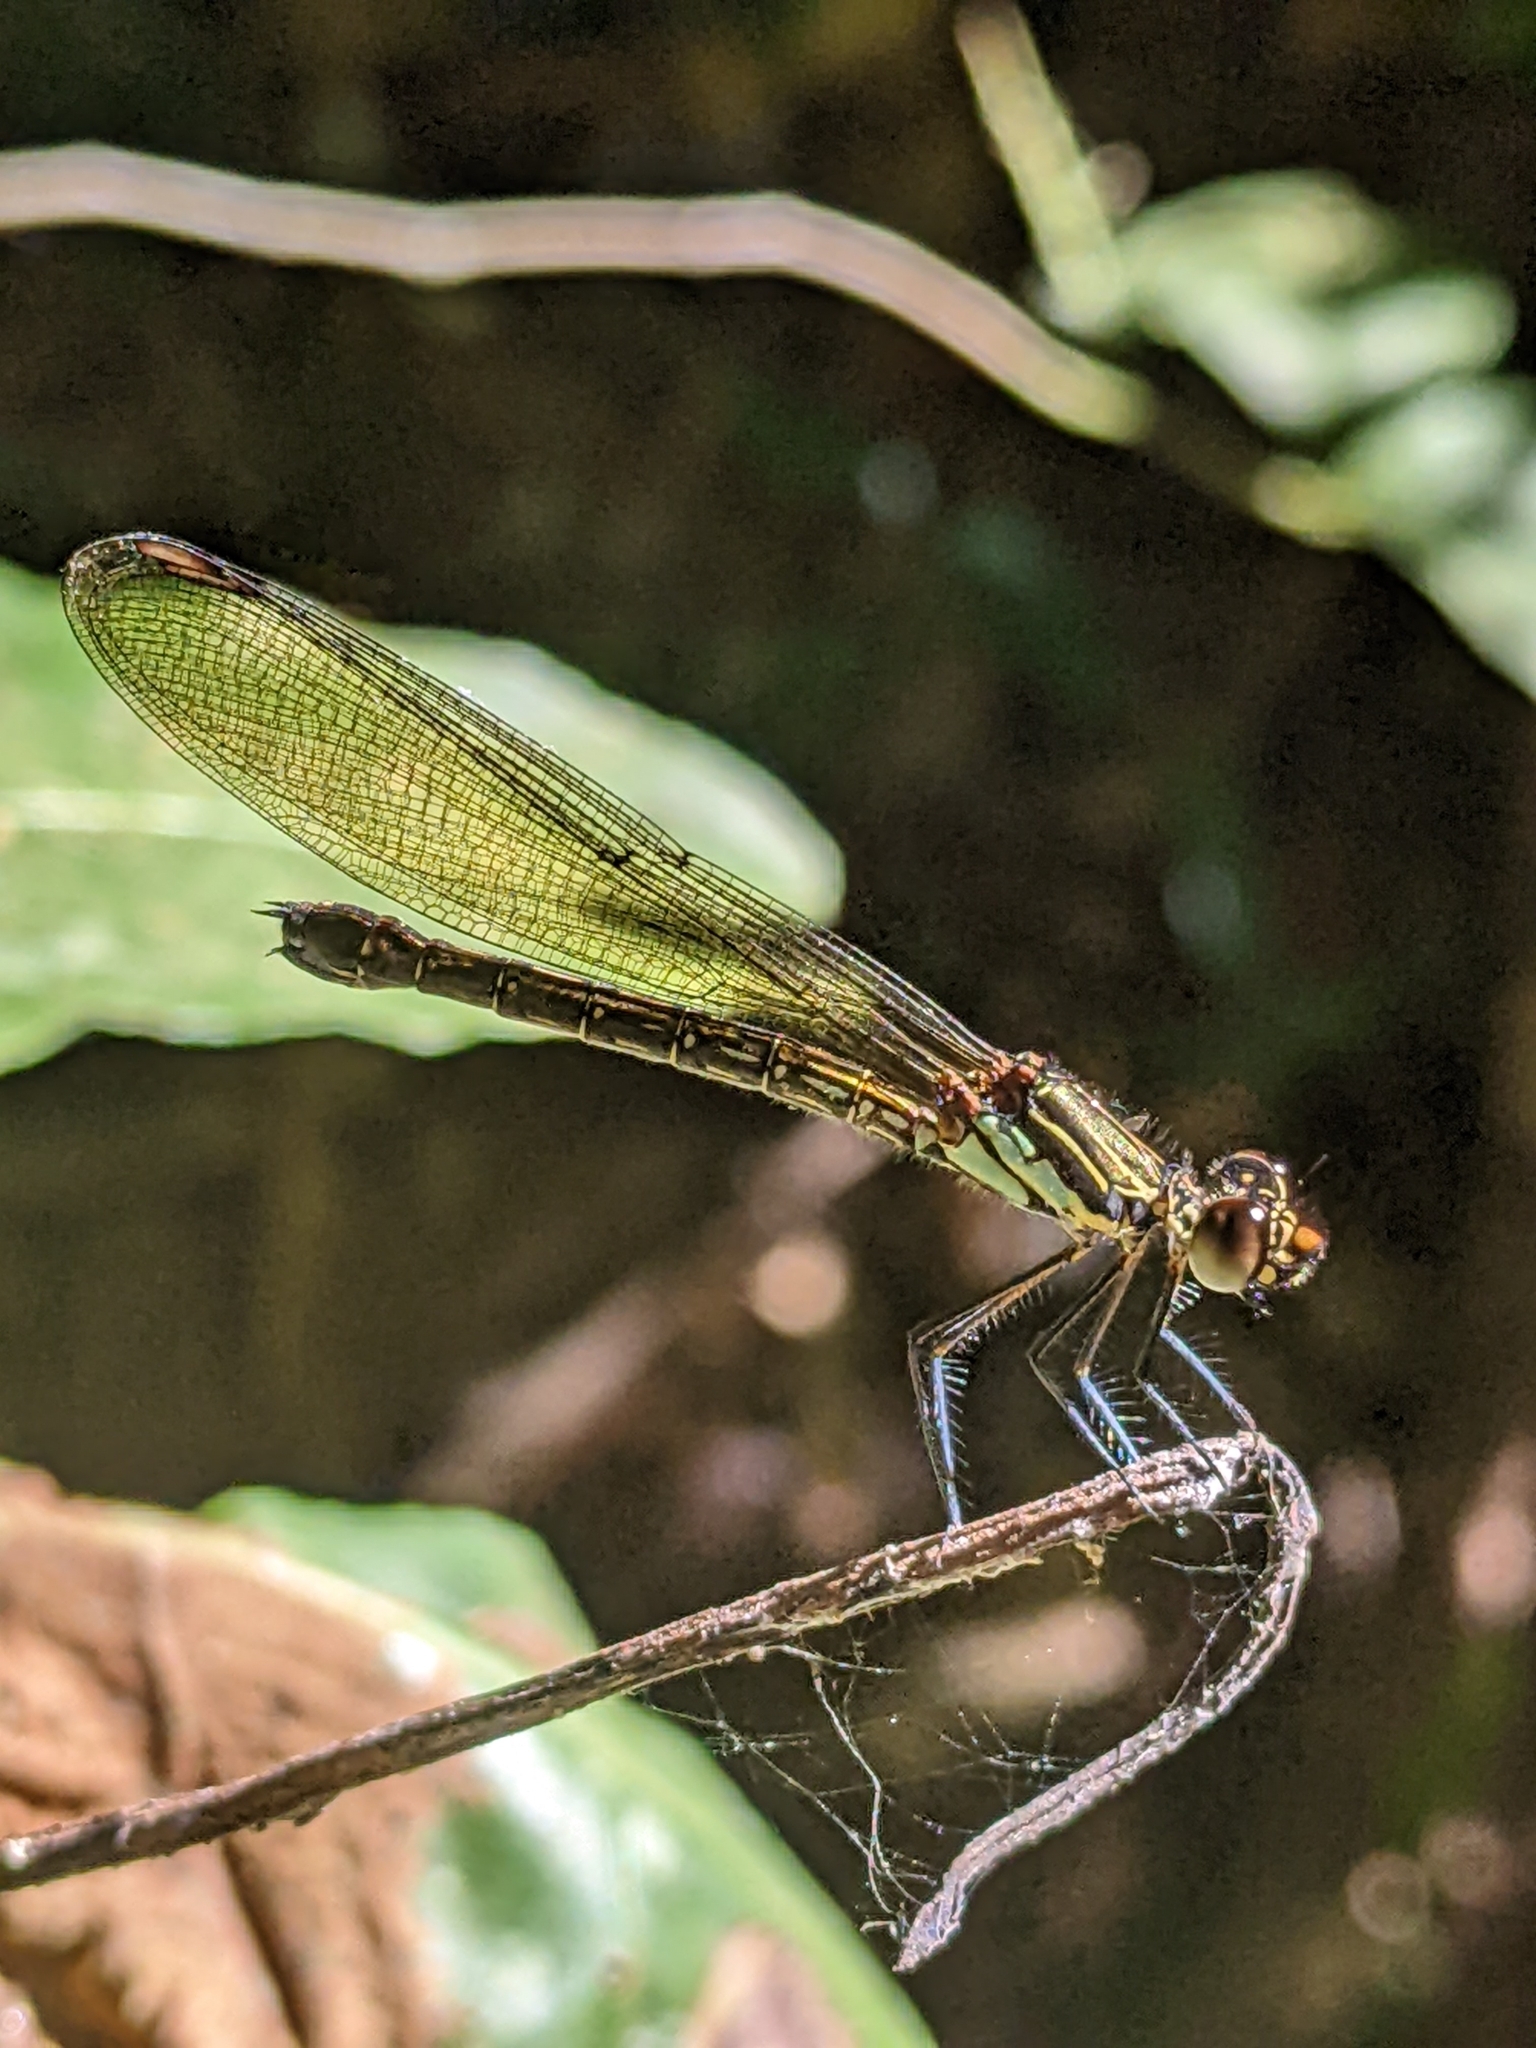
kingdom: Animalia
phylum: Arthropoda
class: Insecta
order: Odonata
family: Chlorocyphidae
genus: Heliocypha
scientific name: Heliocypha biforata
